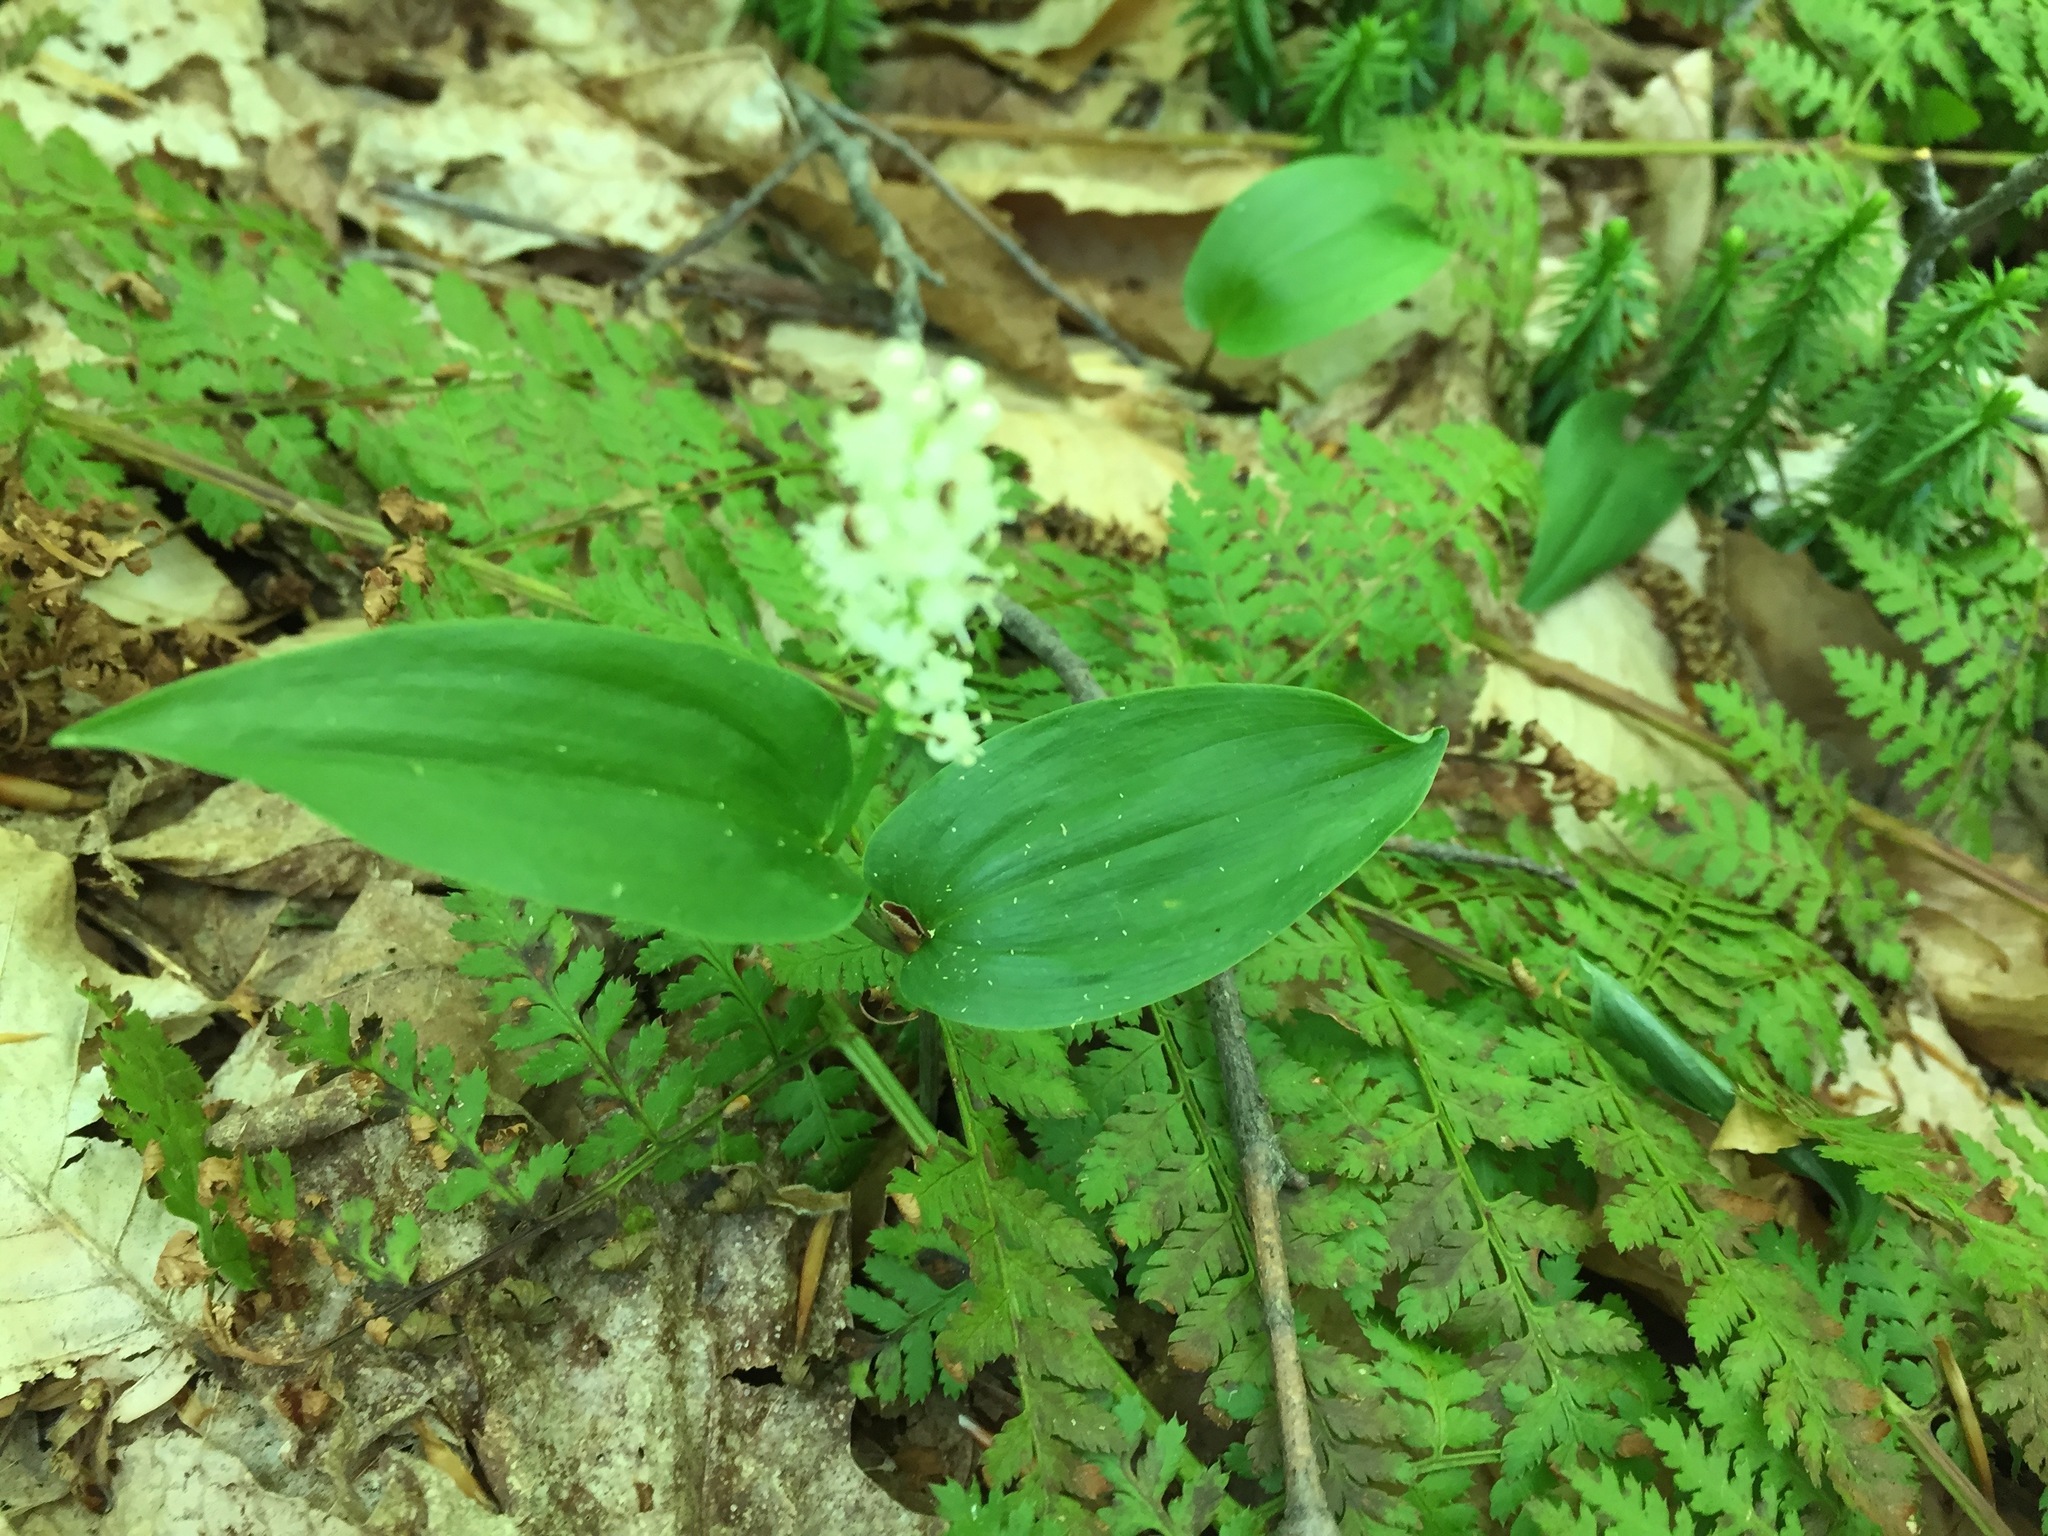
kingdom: Plantae
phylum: Tracheophyta
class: Liliopsida
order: Asparagales
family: Asparagaceae
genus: Maianthemum
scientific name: Maianthemum canadense
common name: False lily-of-the-valley
